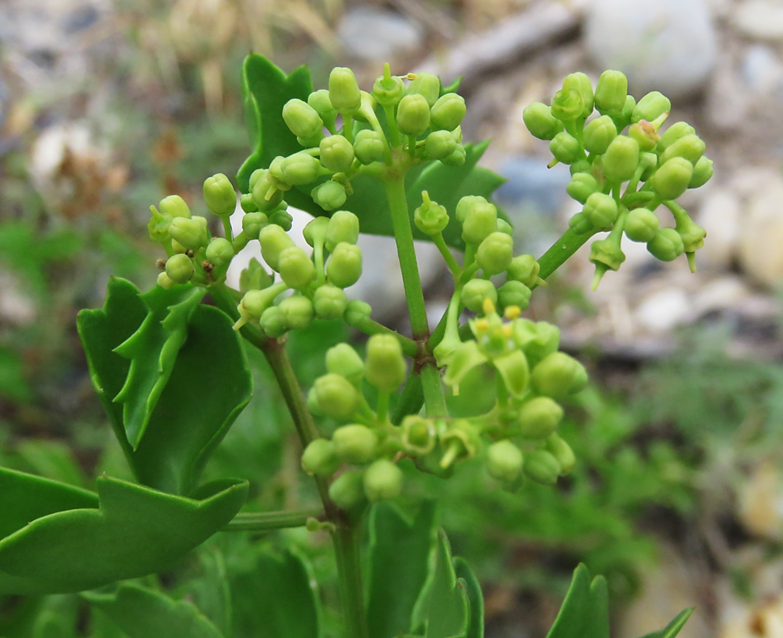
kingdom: Plantae
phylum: Tracheophyta
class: Magnoliopsida
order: Vitales
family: Vitaceae
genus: Cissus
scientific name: Cissus trifoliata
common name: Vine-sorrel
